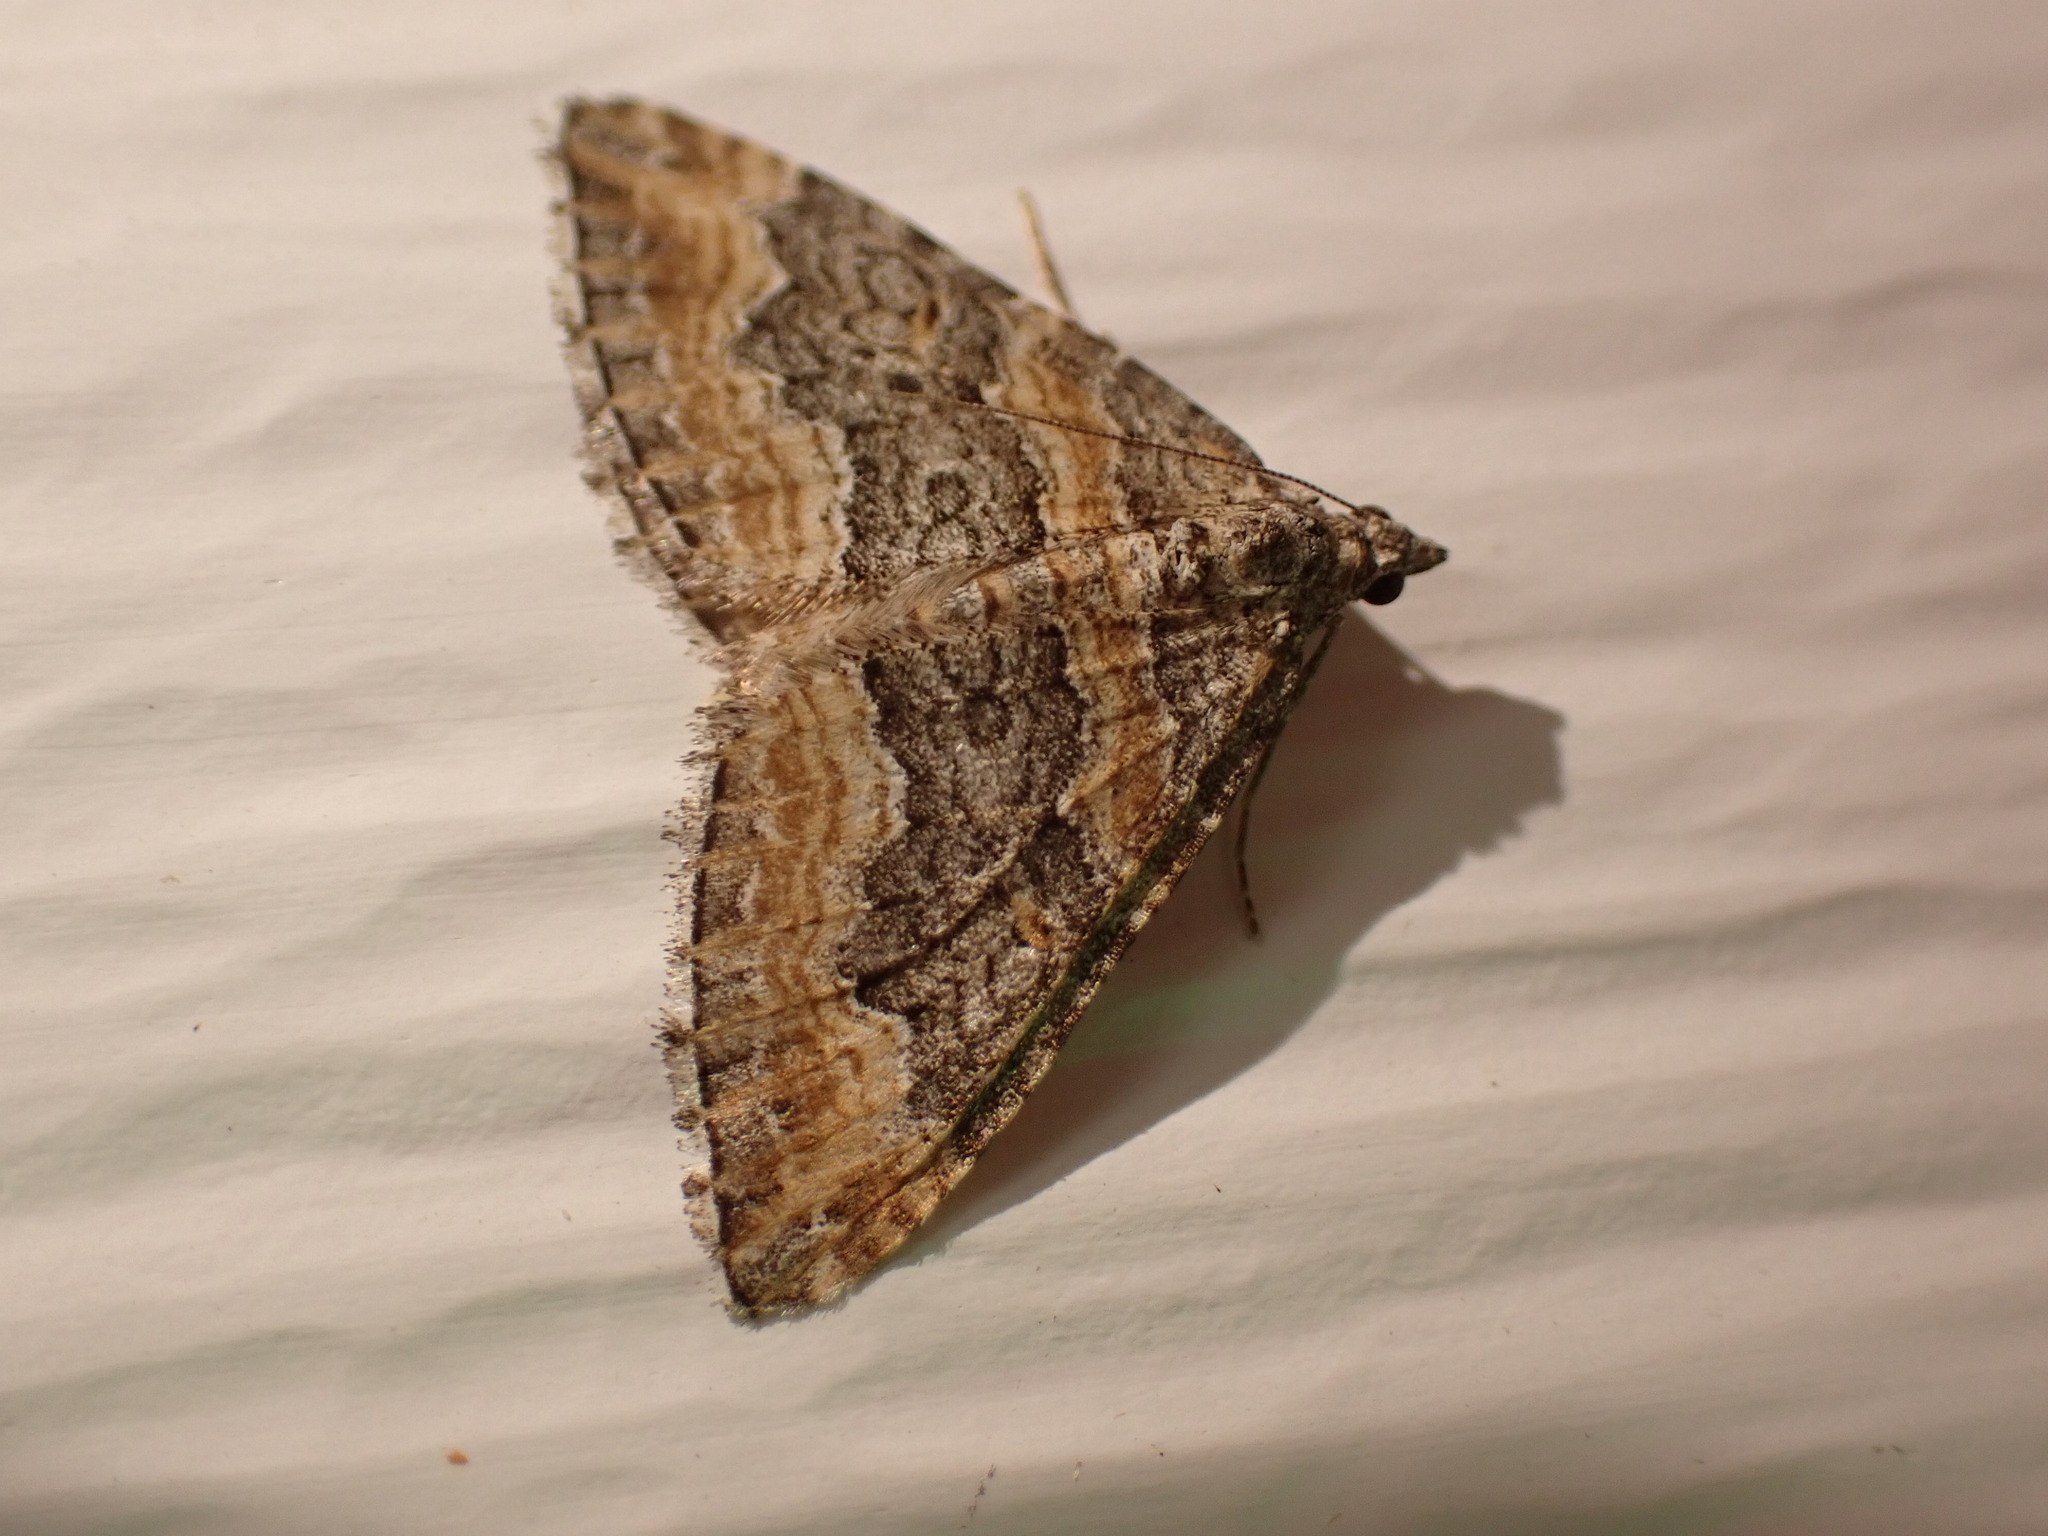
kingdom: Animalia
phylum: Arthropoda
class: Insecta
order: Lepidoptera
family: Geometridae
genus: Perizoma
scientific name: Perizoma custodiata
